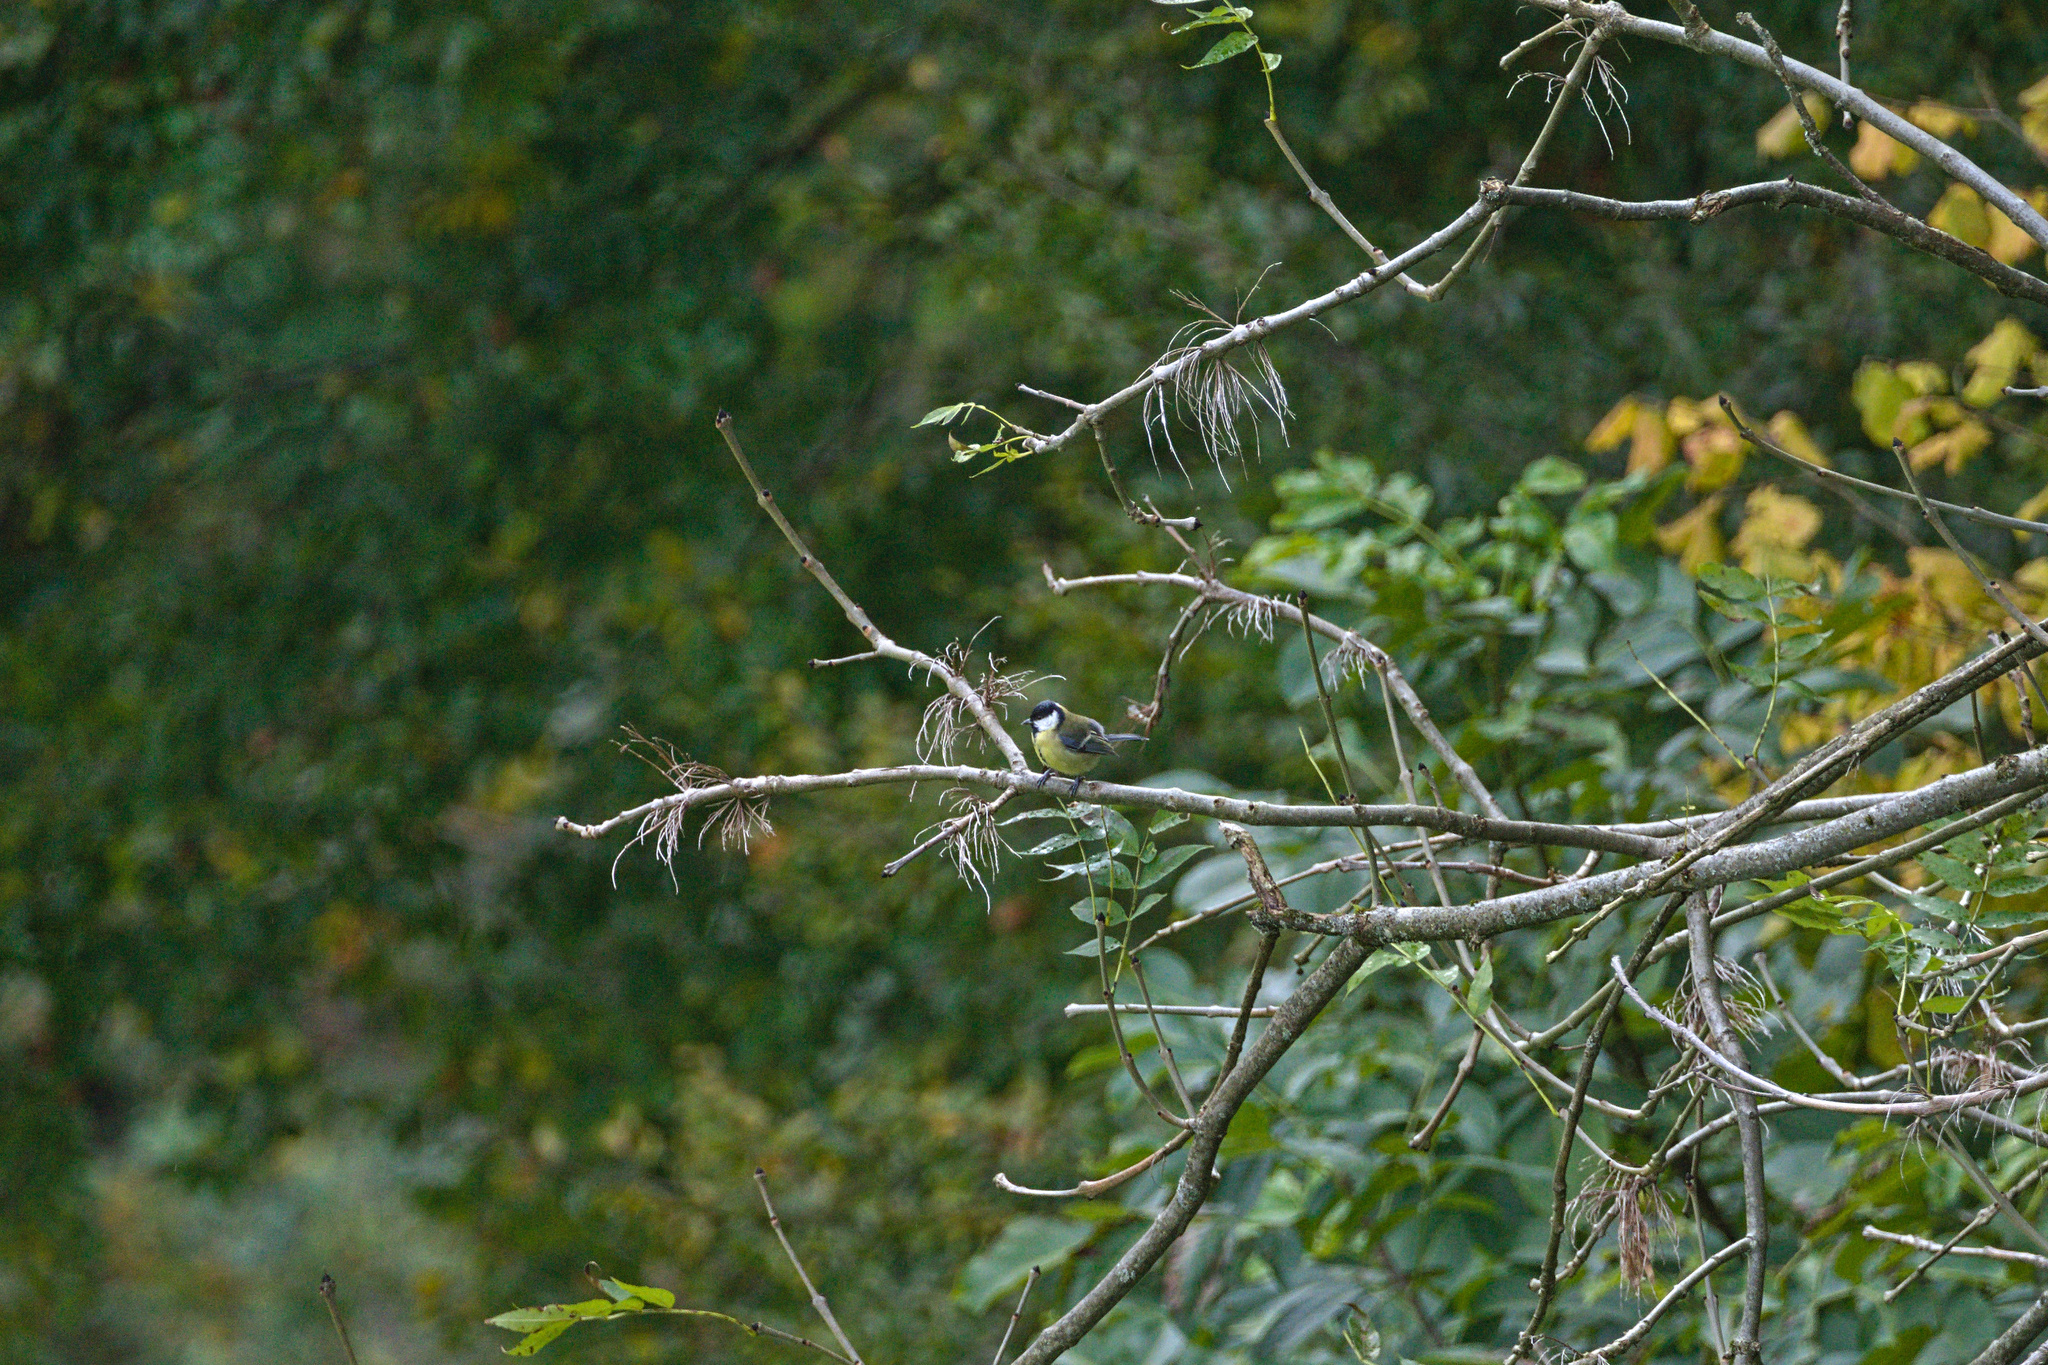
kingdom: Animalia
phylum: Chordata
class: Aves
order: Passeriformes
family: Paridae
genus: Parus
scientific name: Parus major
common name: Great tit
